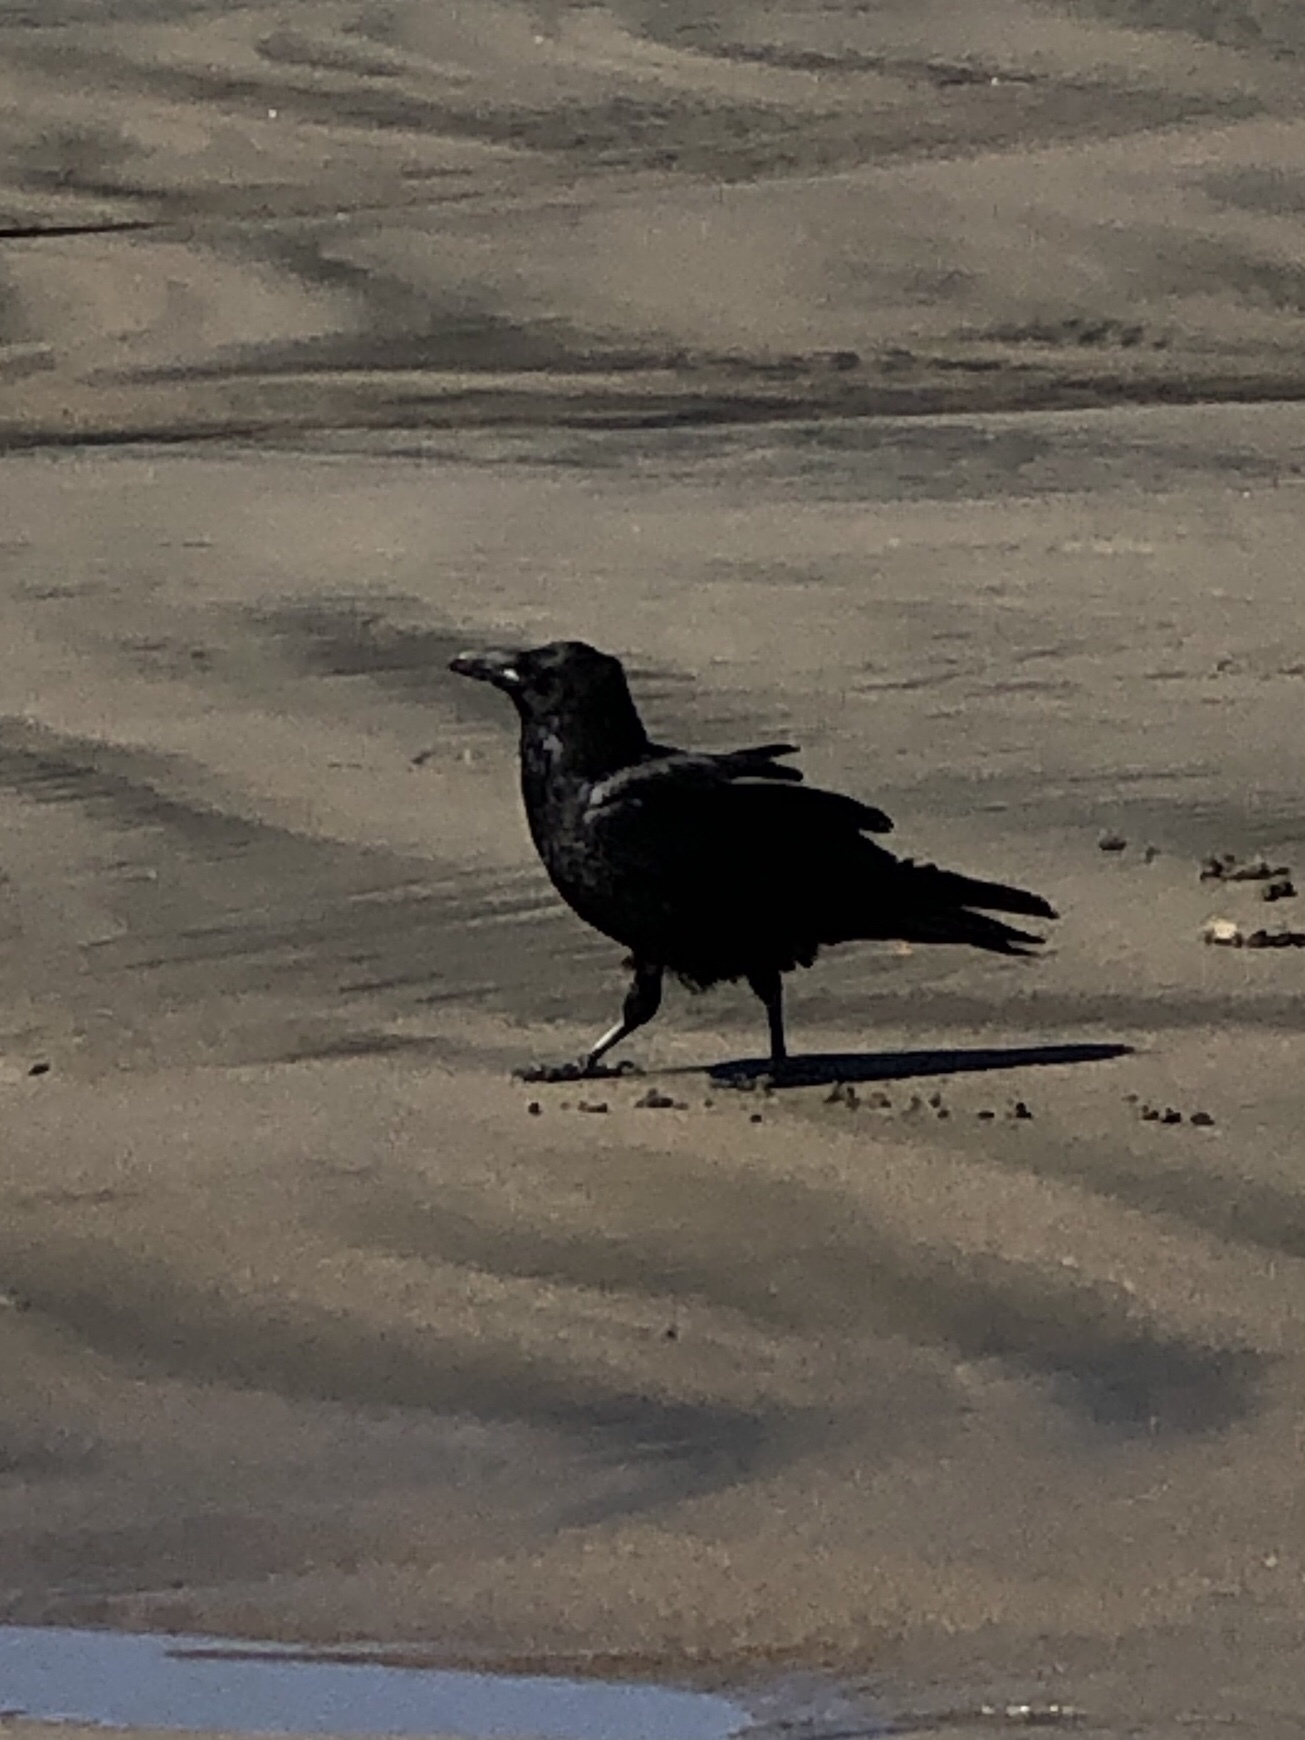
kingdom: Animalia
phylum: Chordata
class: Aves
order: Passeriformes
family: Corvidae
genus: Corvus
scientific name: Corvus corax
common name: Common raven
